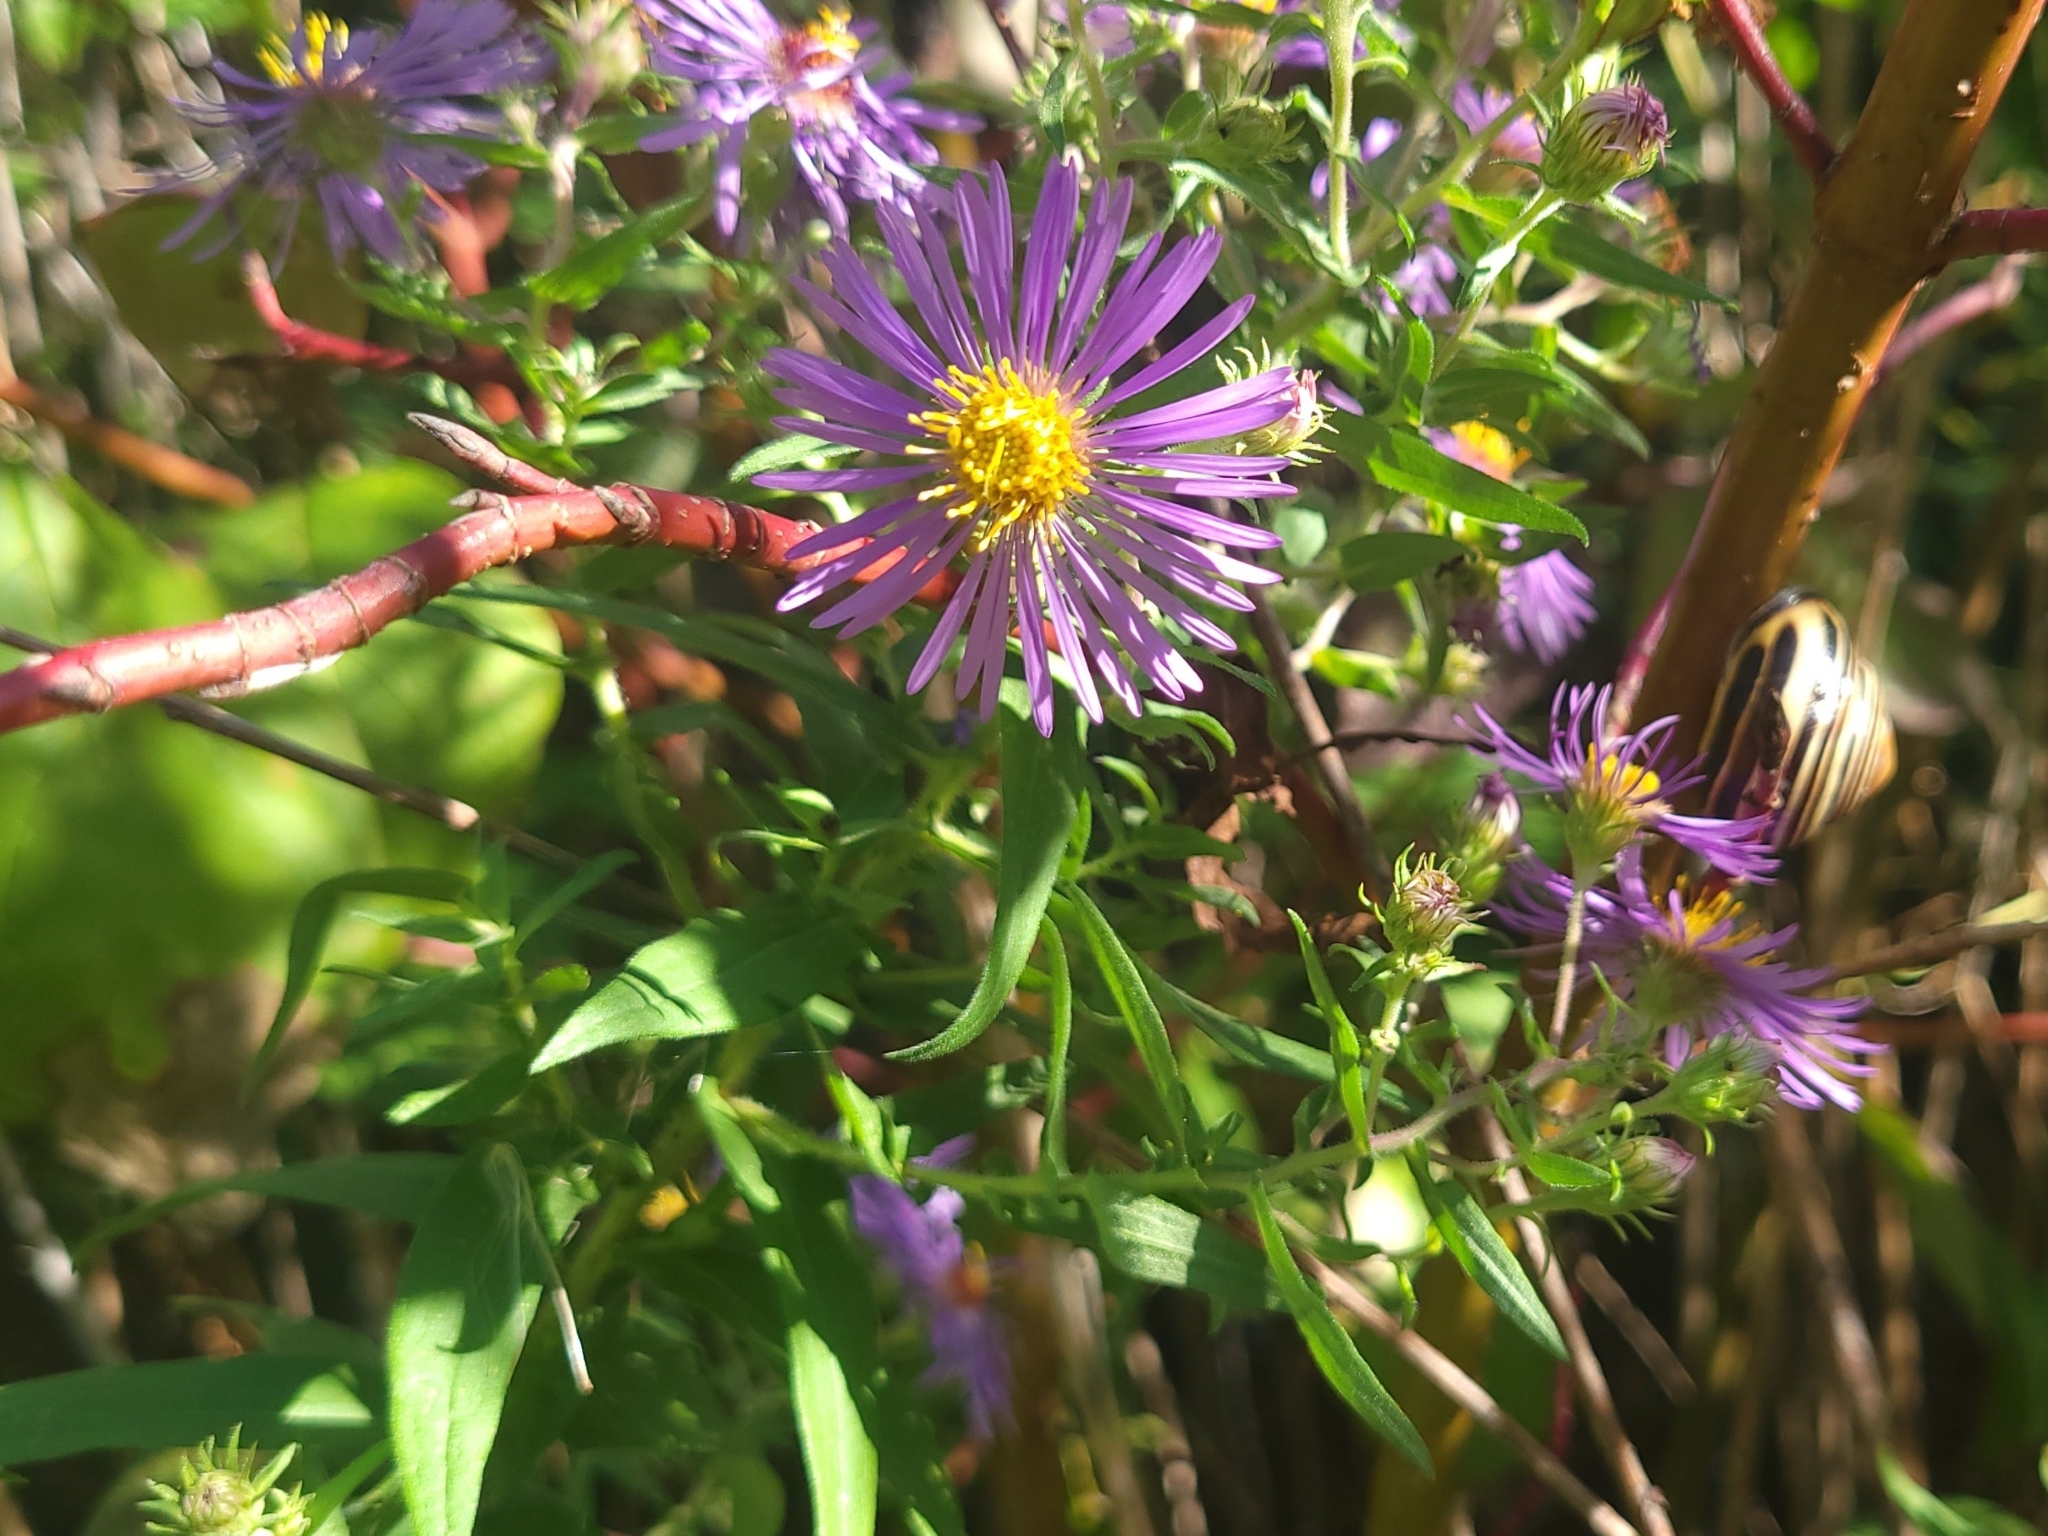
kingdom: Plantae
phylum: Tracheophyta
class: Magnoliopsida
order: Asterales
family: Asteraceae
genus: Symphyotrichum
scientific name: Symphyotrichum novae-angliae
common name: Michaelmas daisy
